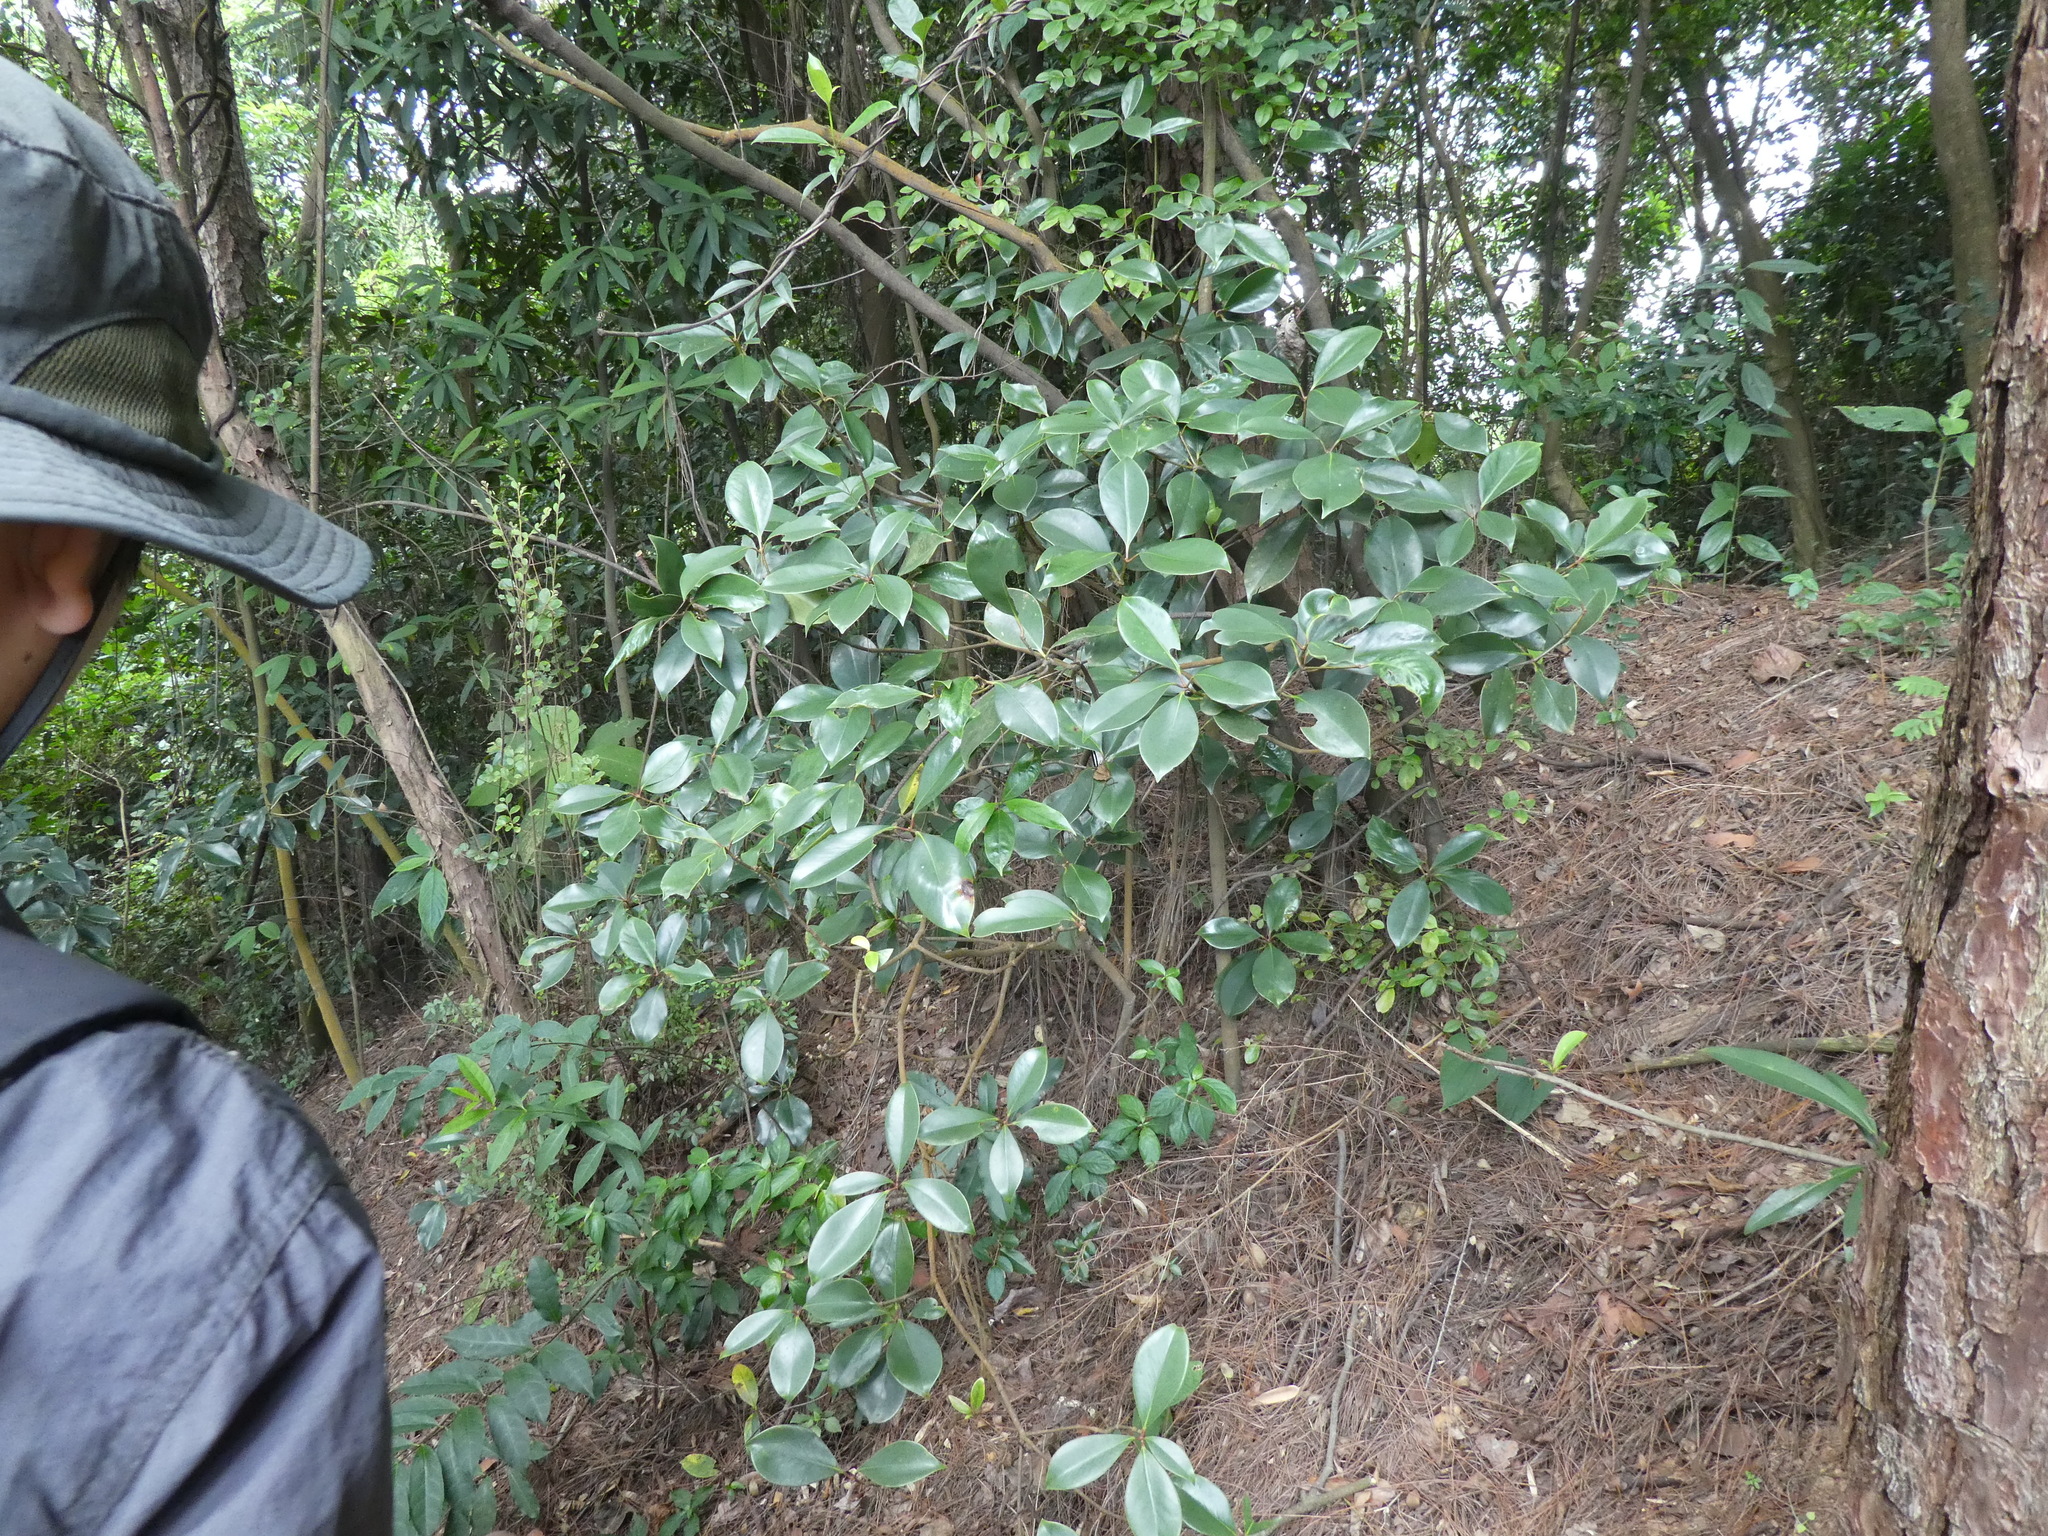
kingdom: Plantae
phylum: Tracheophyta
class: Magnoliopsida
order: Ericales
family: Pentaphylacaceae
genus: Ternstroemia
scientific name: Ternstroemia coniocarpa
